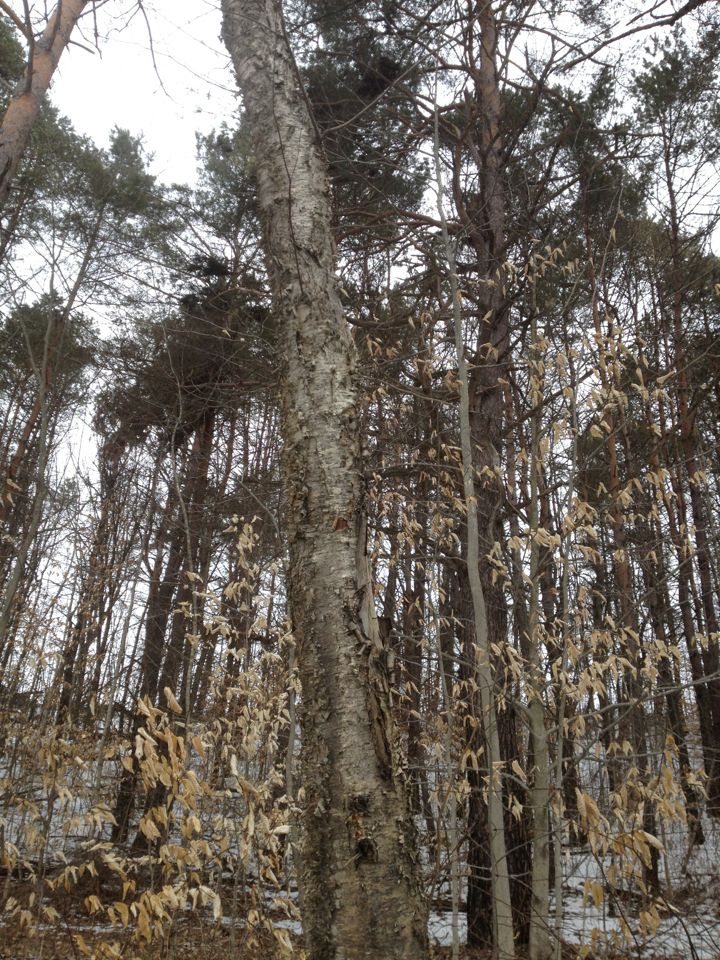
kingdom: Plantae
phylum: Tracheophyta
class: Magnoliopsida
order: Fagales
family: Betulaceae
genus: Betula
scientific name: Betula alleghaniensis
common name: Yellow birch
